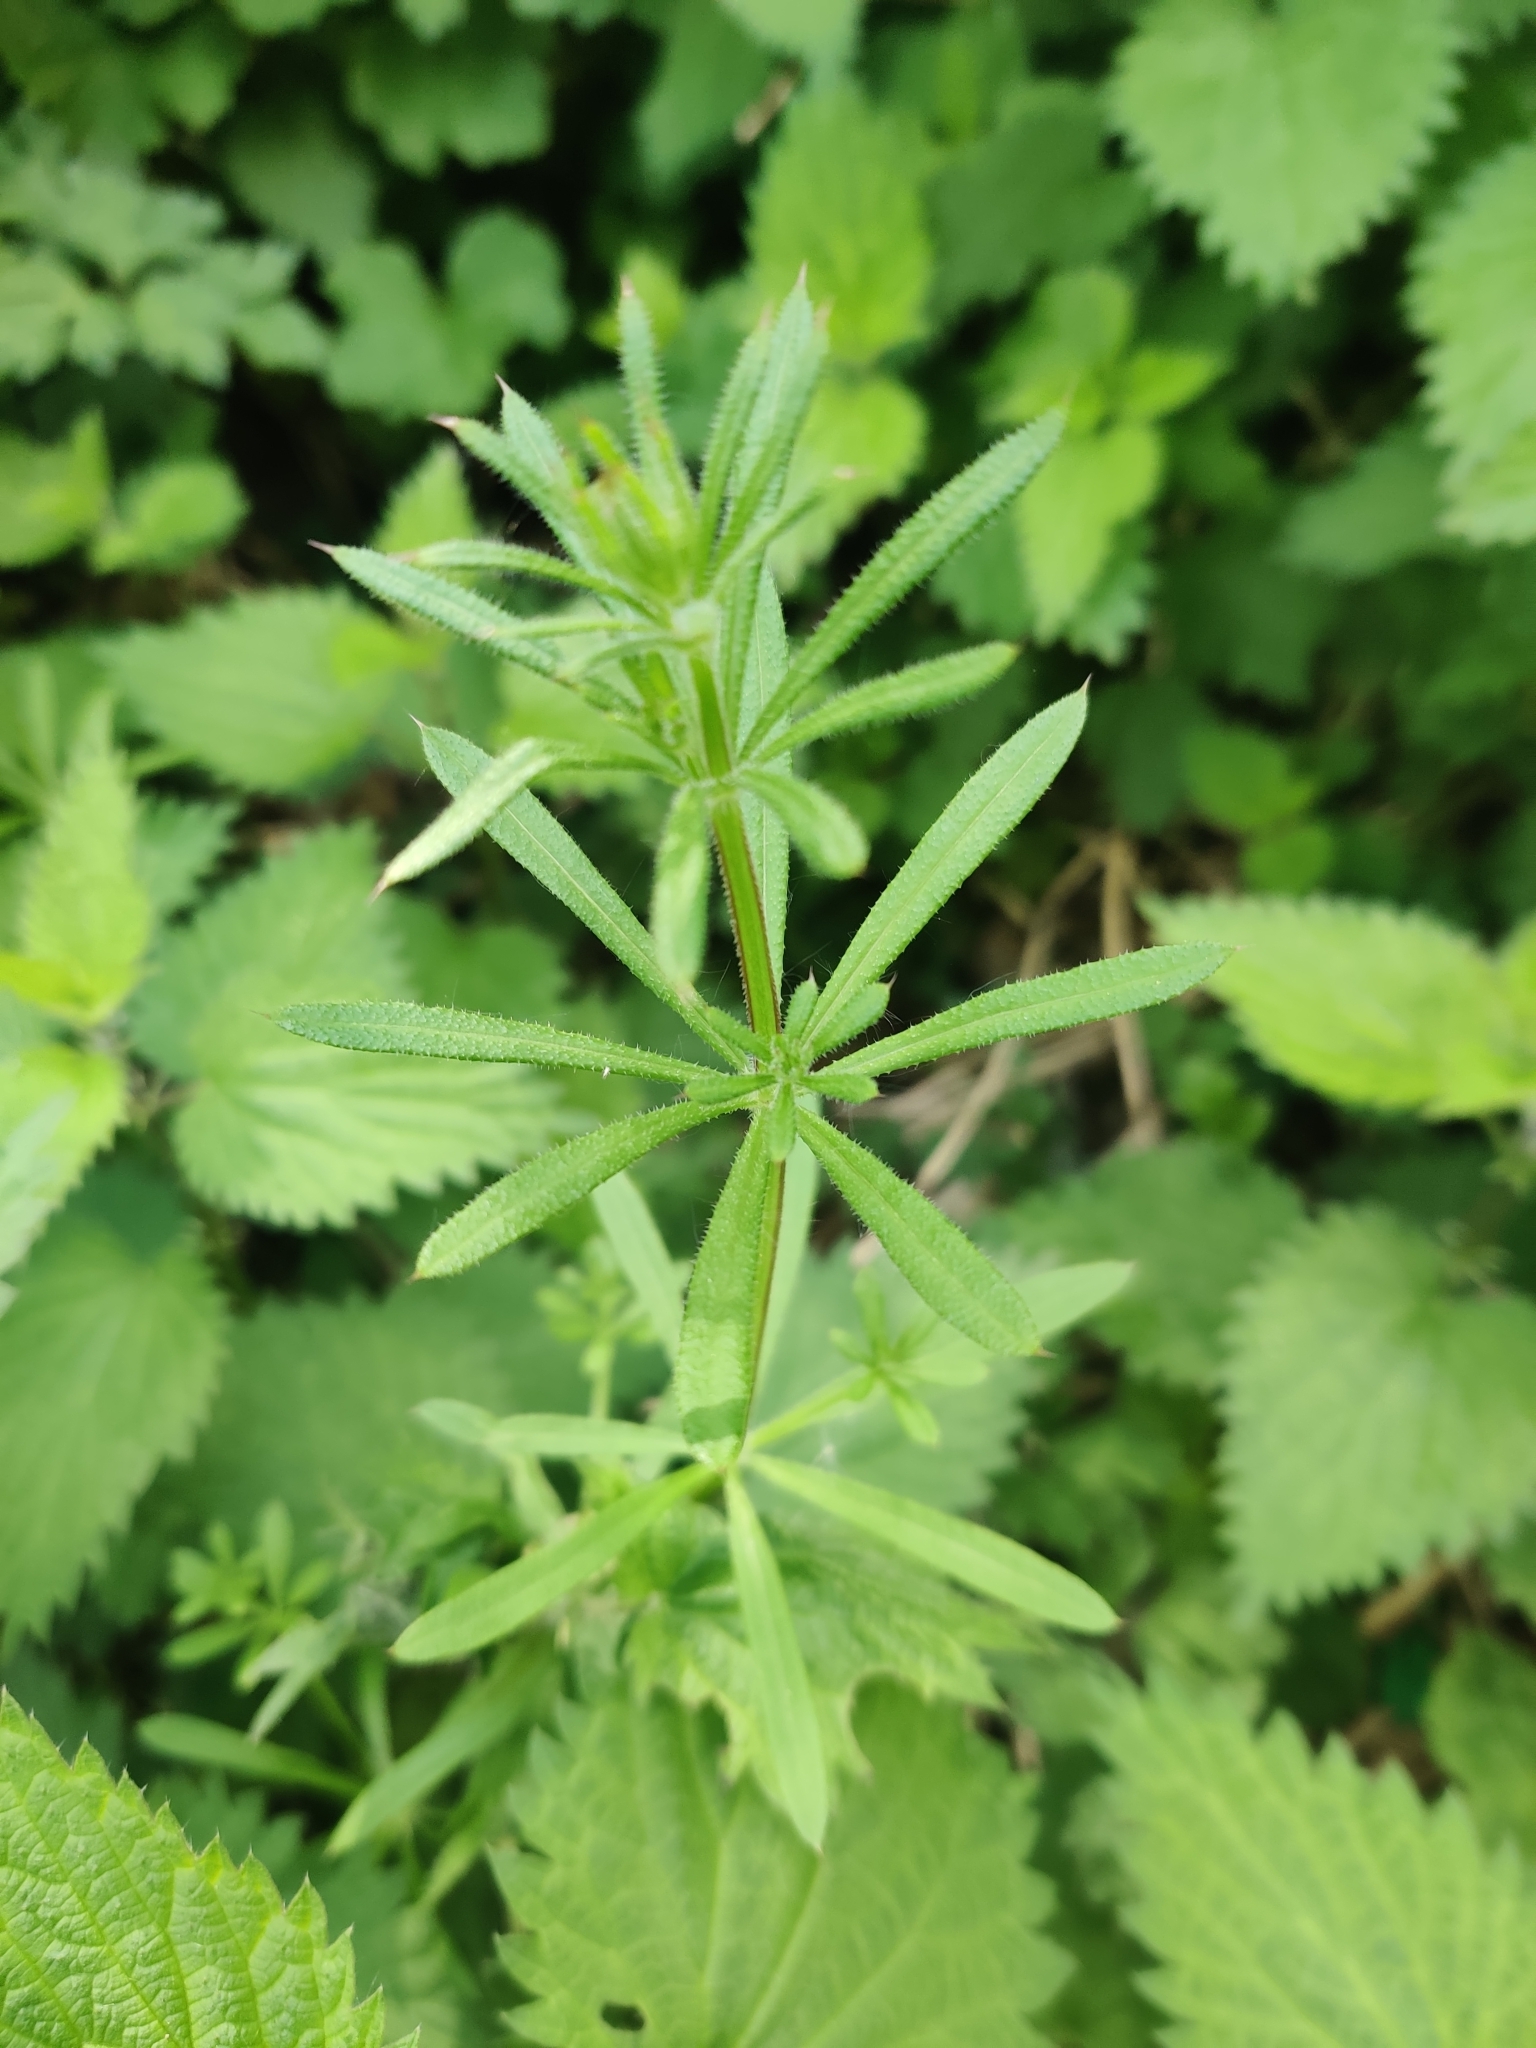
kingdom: Plantae
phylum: Tracheophyta
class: Magnoliopsida
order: Gentianales
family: Rubiaceae
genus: Galium
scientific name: Galium aparine
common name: Cleavers
